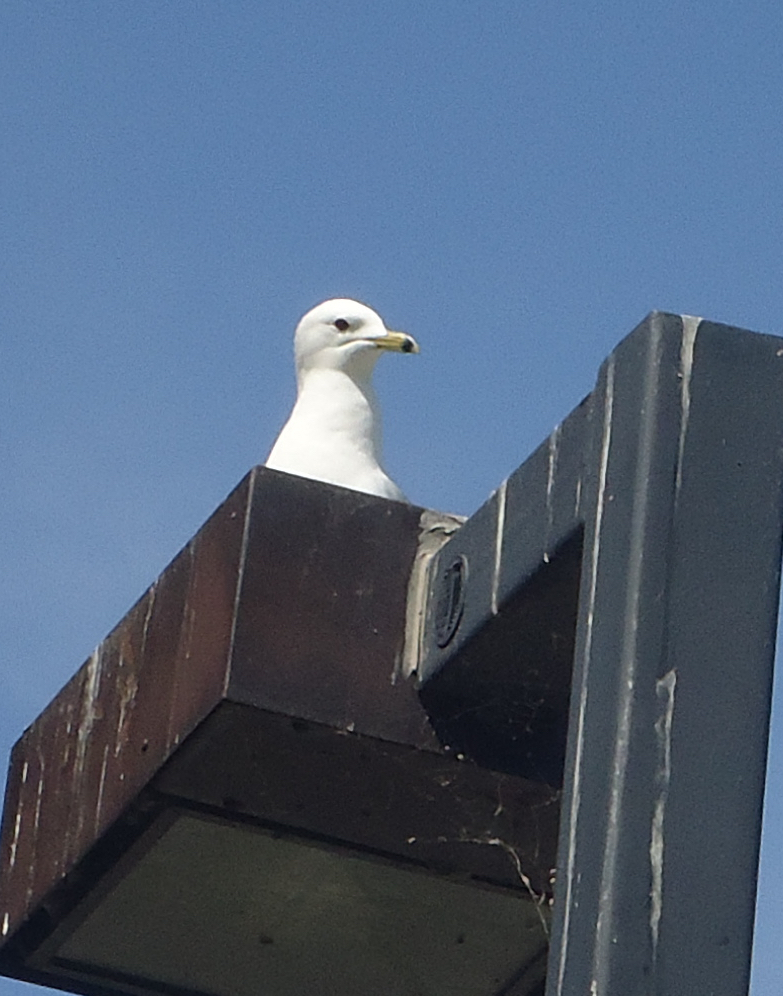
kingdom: Animalia
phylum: Chordata
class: Aves
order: Charadriiformes
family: Laridae
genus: Larus
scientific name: Larus delawarensis
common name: Ring-billed gull
